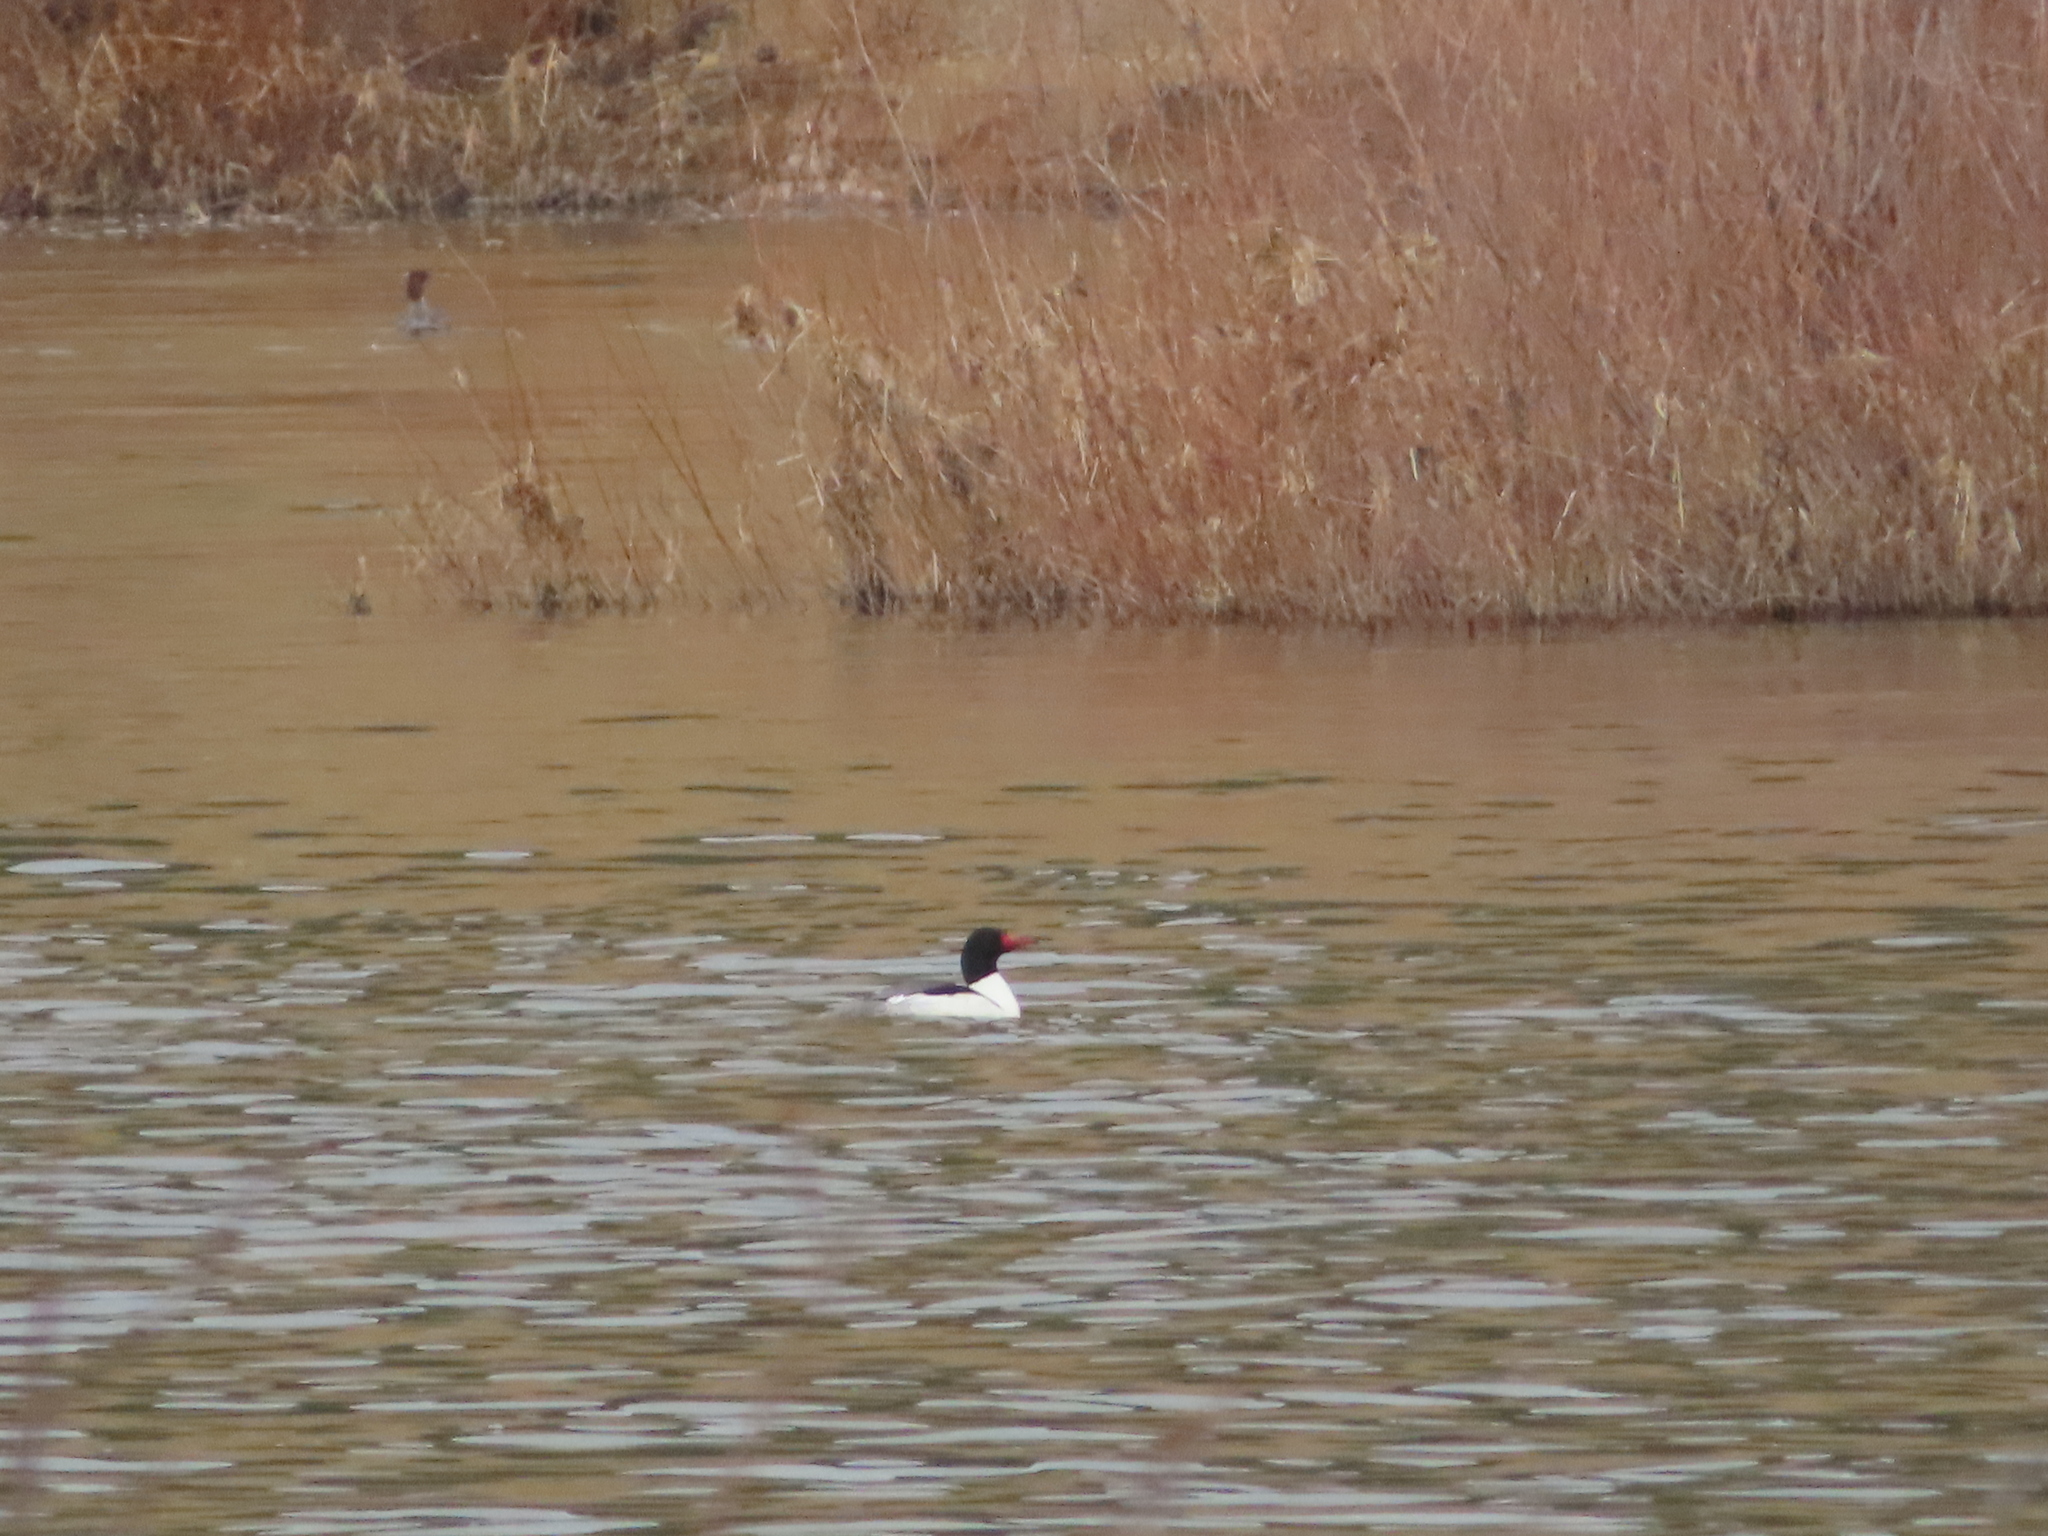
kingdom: Animalia
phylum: Chordata
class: Aves
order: Anseriformes
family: Anatidae
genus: Mergus
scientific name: Mergus merganser
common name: Common merganser
